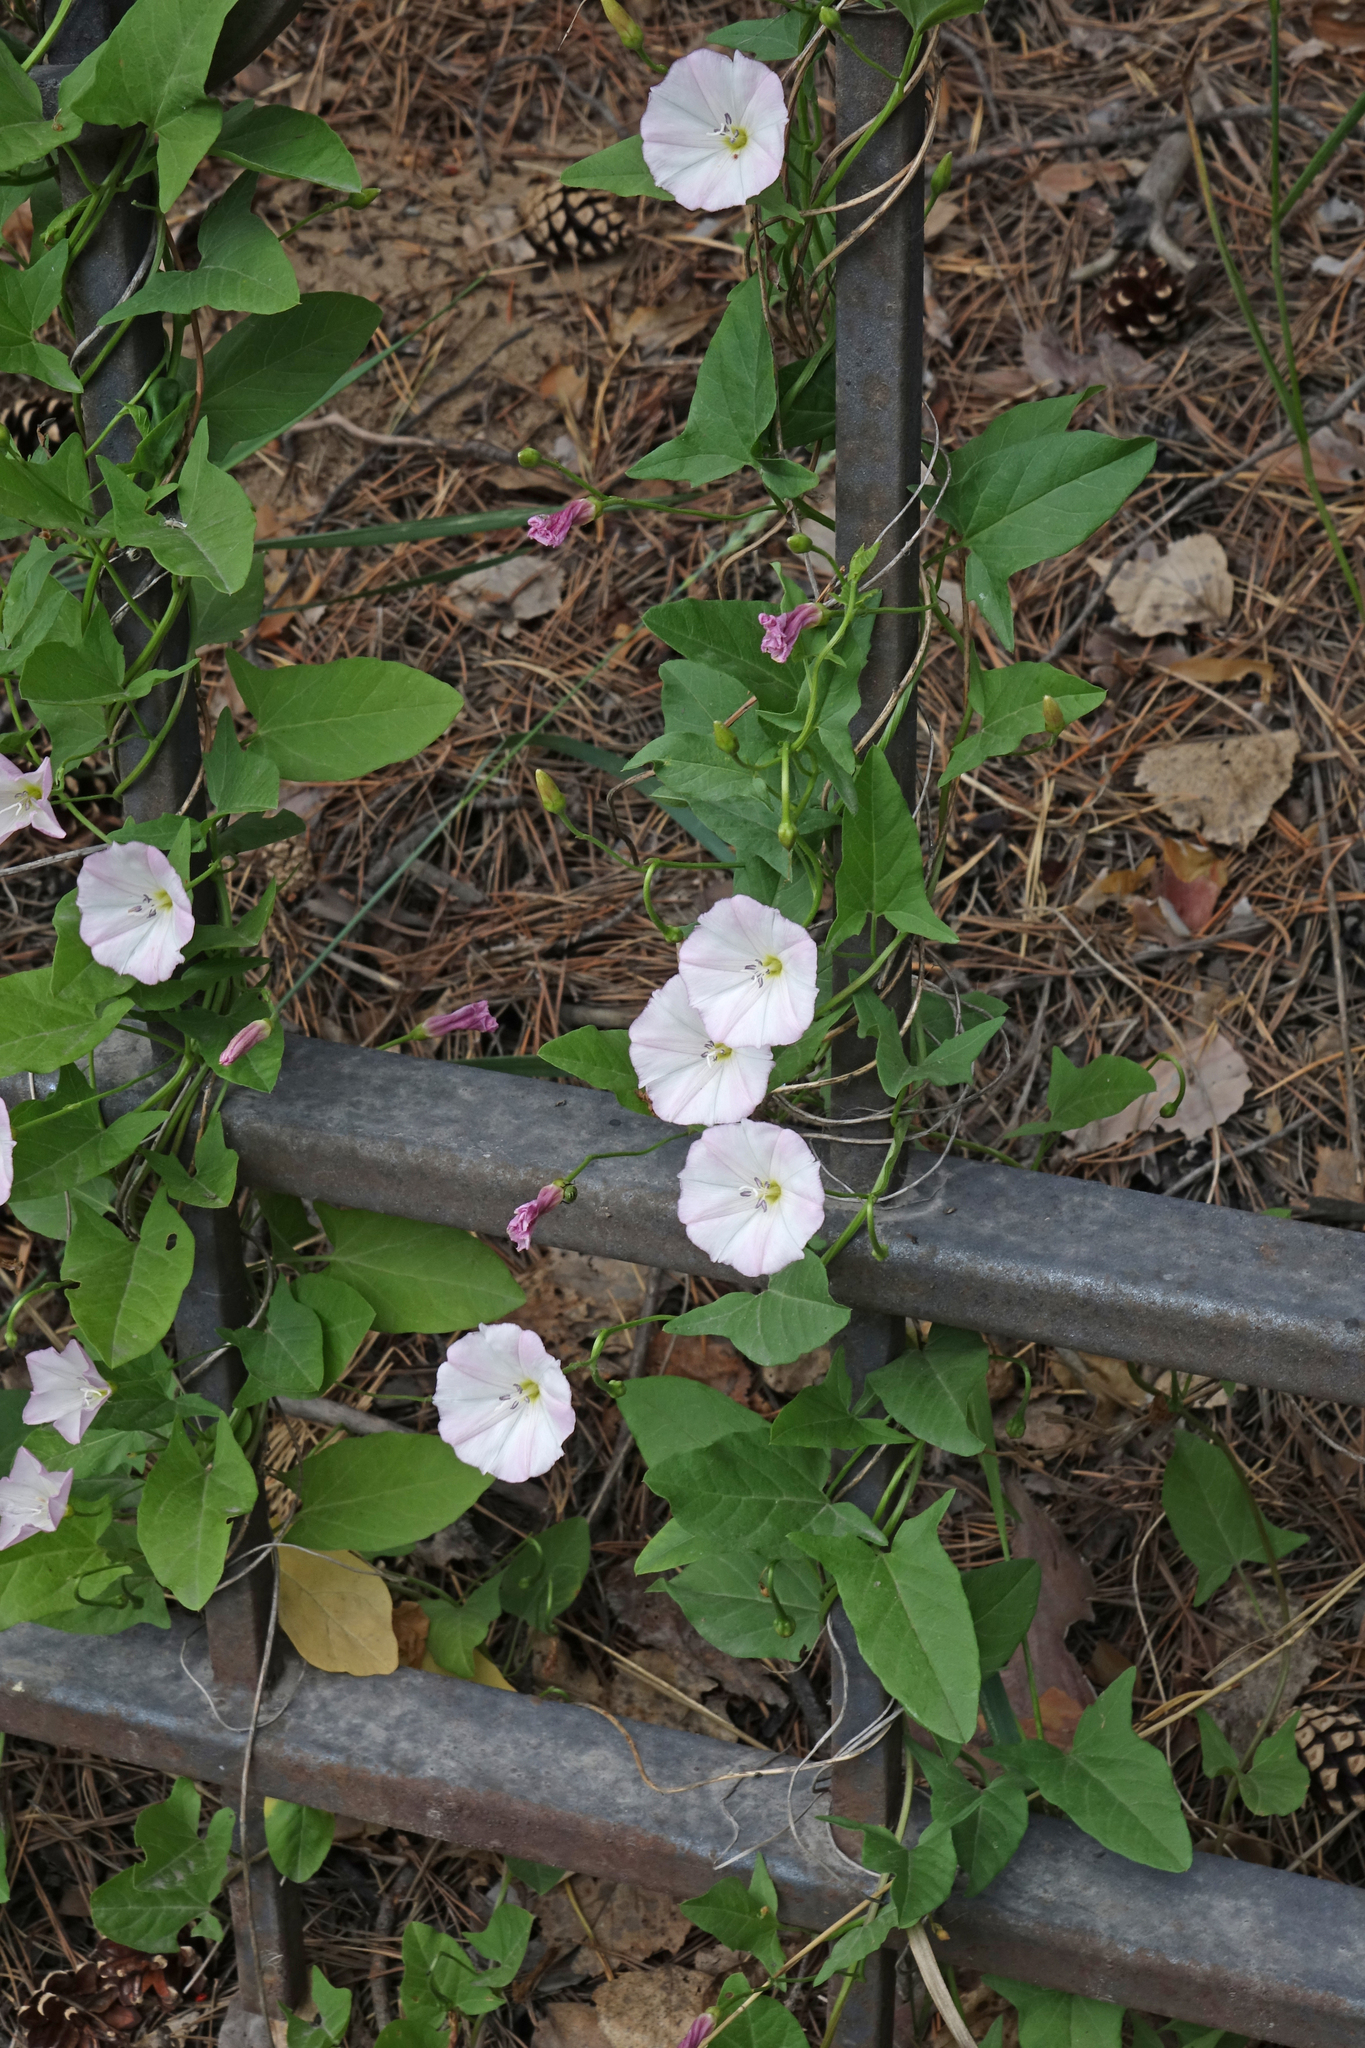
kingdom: Plantae
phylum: Tracheophyta
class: Magnoliopsida
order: Solanales
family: Convolvulaceae
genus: Convolvulus
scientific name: Convolvulus arvensis
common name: Field bindweed
